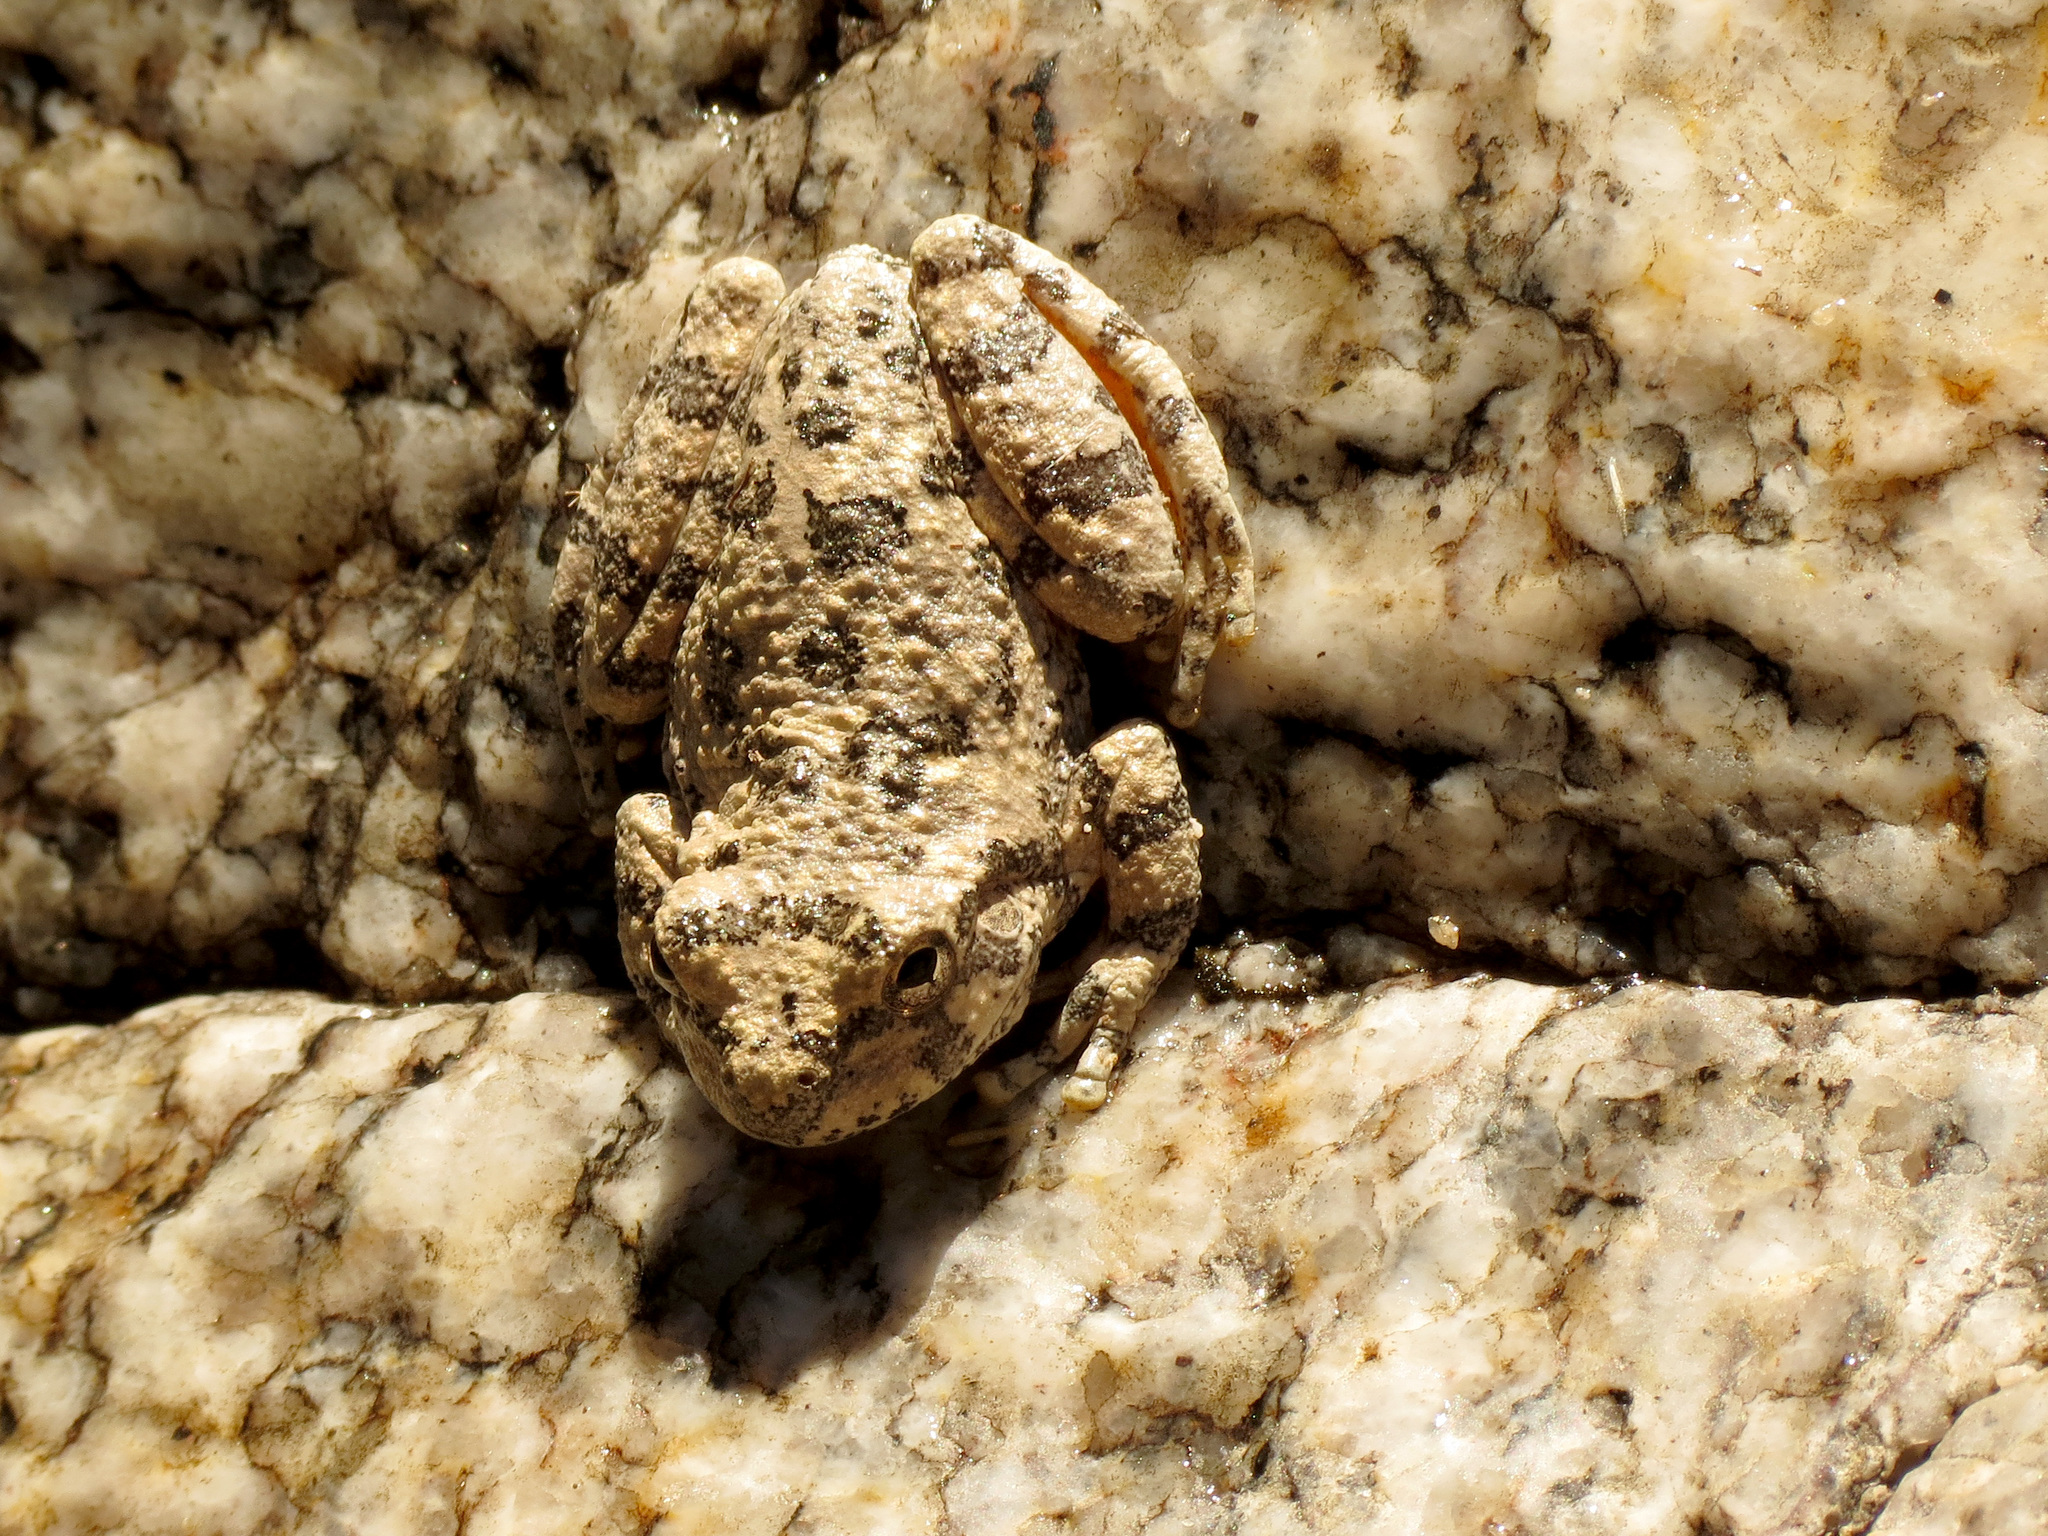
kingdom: Animalia
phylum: Chordata
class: Amphibia
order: Anura
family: Hylidae
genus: Dryophytes
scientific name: Dryophytes arenicolor
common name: Canyon treefrog
